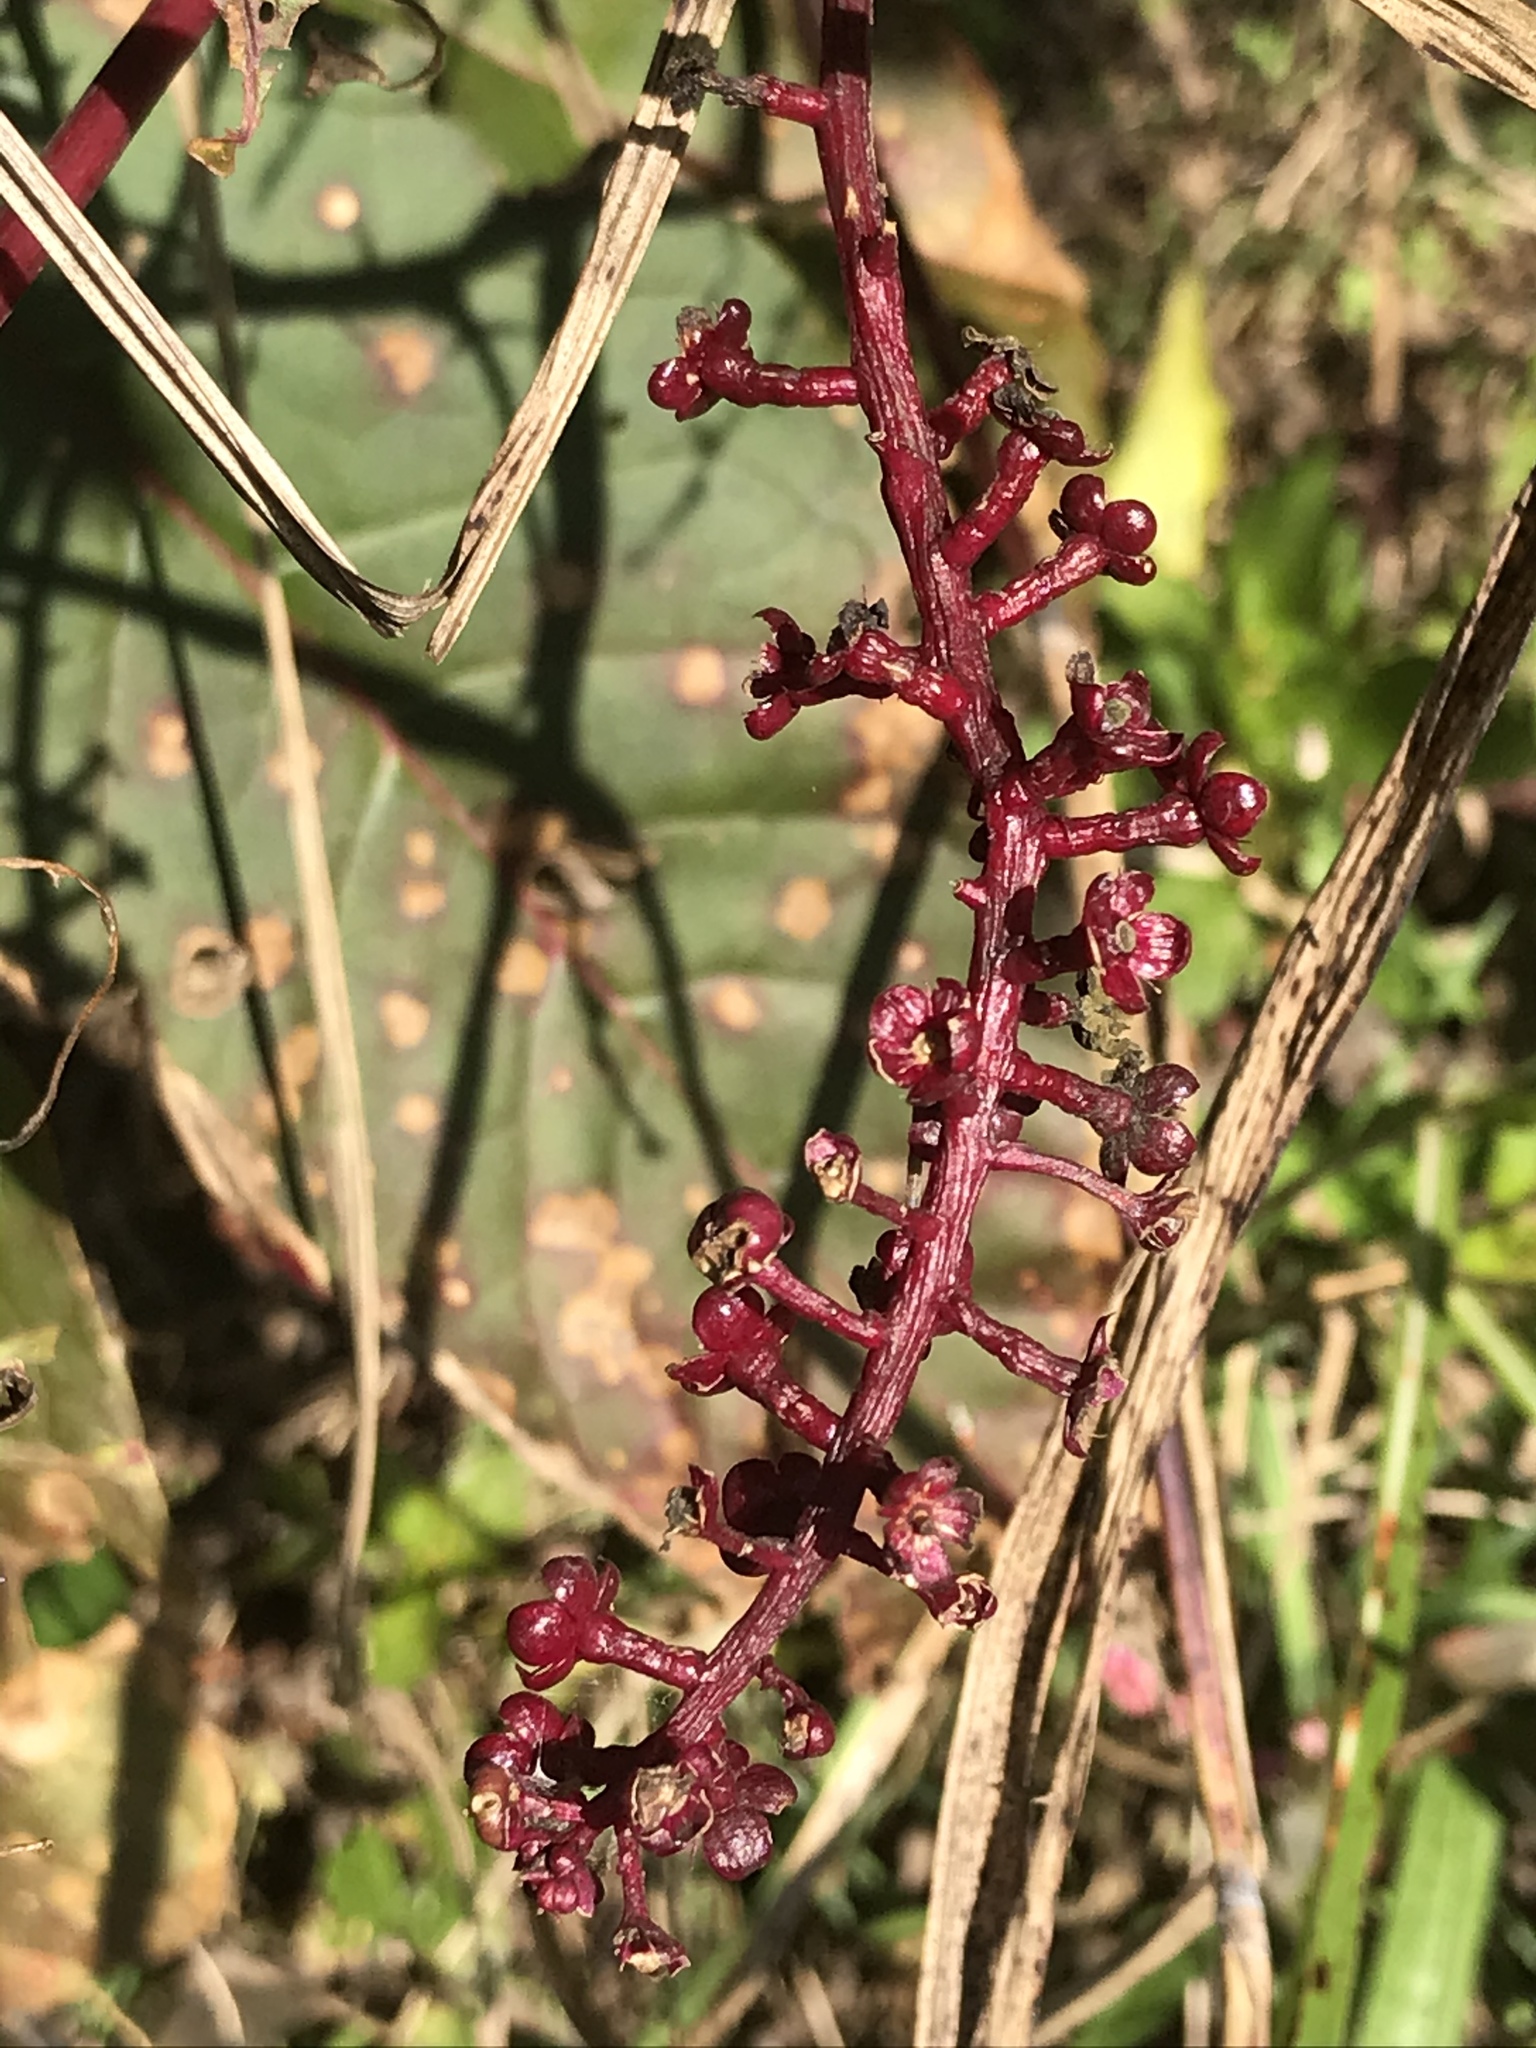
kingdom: Plantae
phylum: Tracheophyta
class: Magnoliopsida
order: Caryophyllales
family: Phytolaccaceae
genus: Phytolacca
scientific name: Phytolacca americana
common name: American pokeweed
